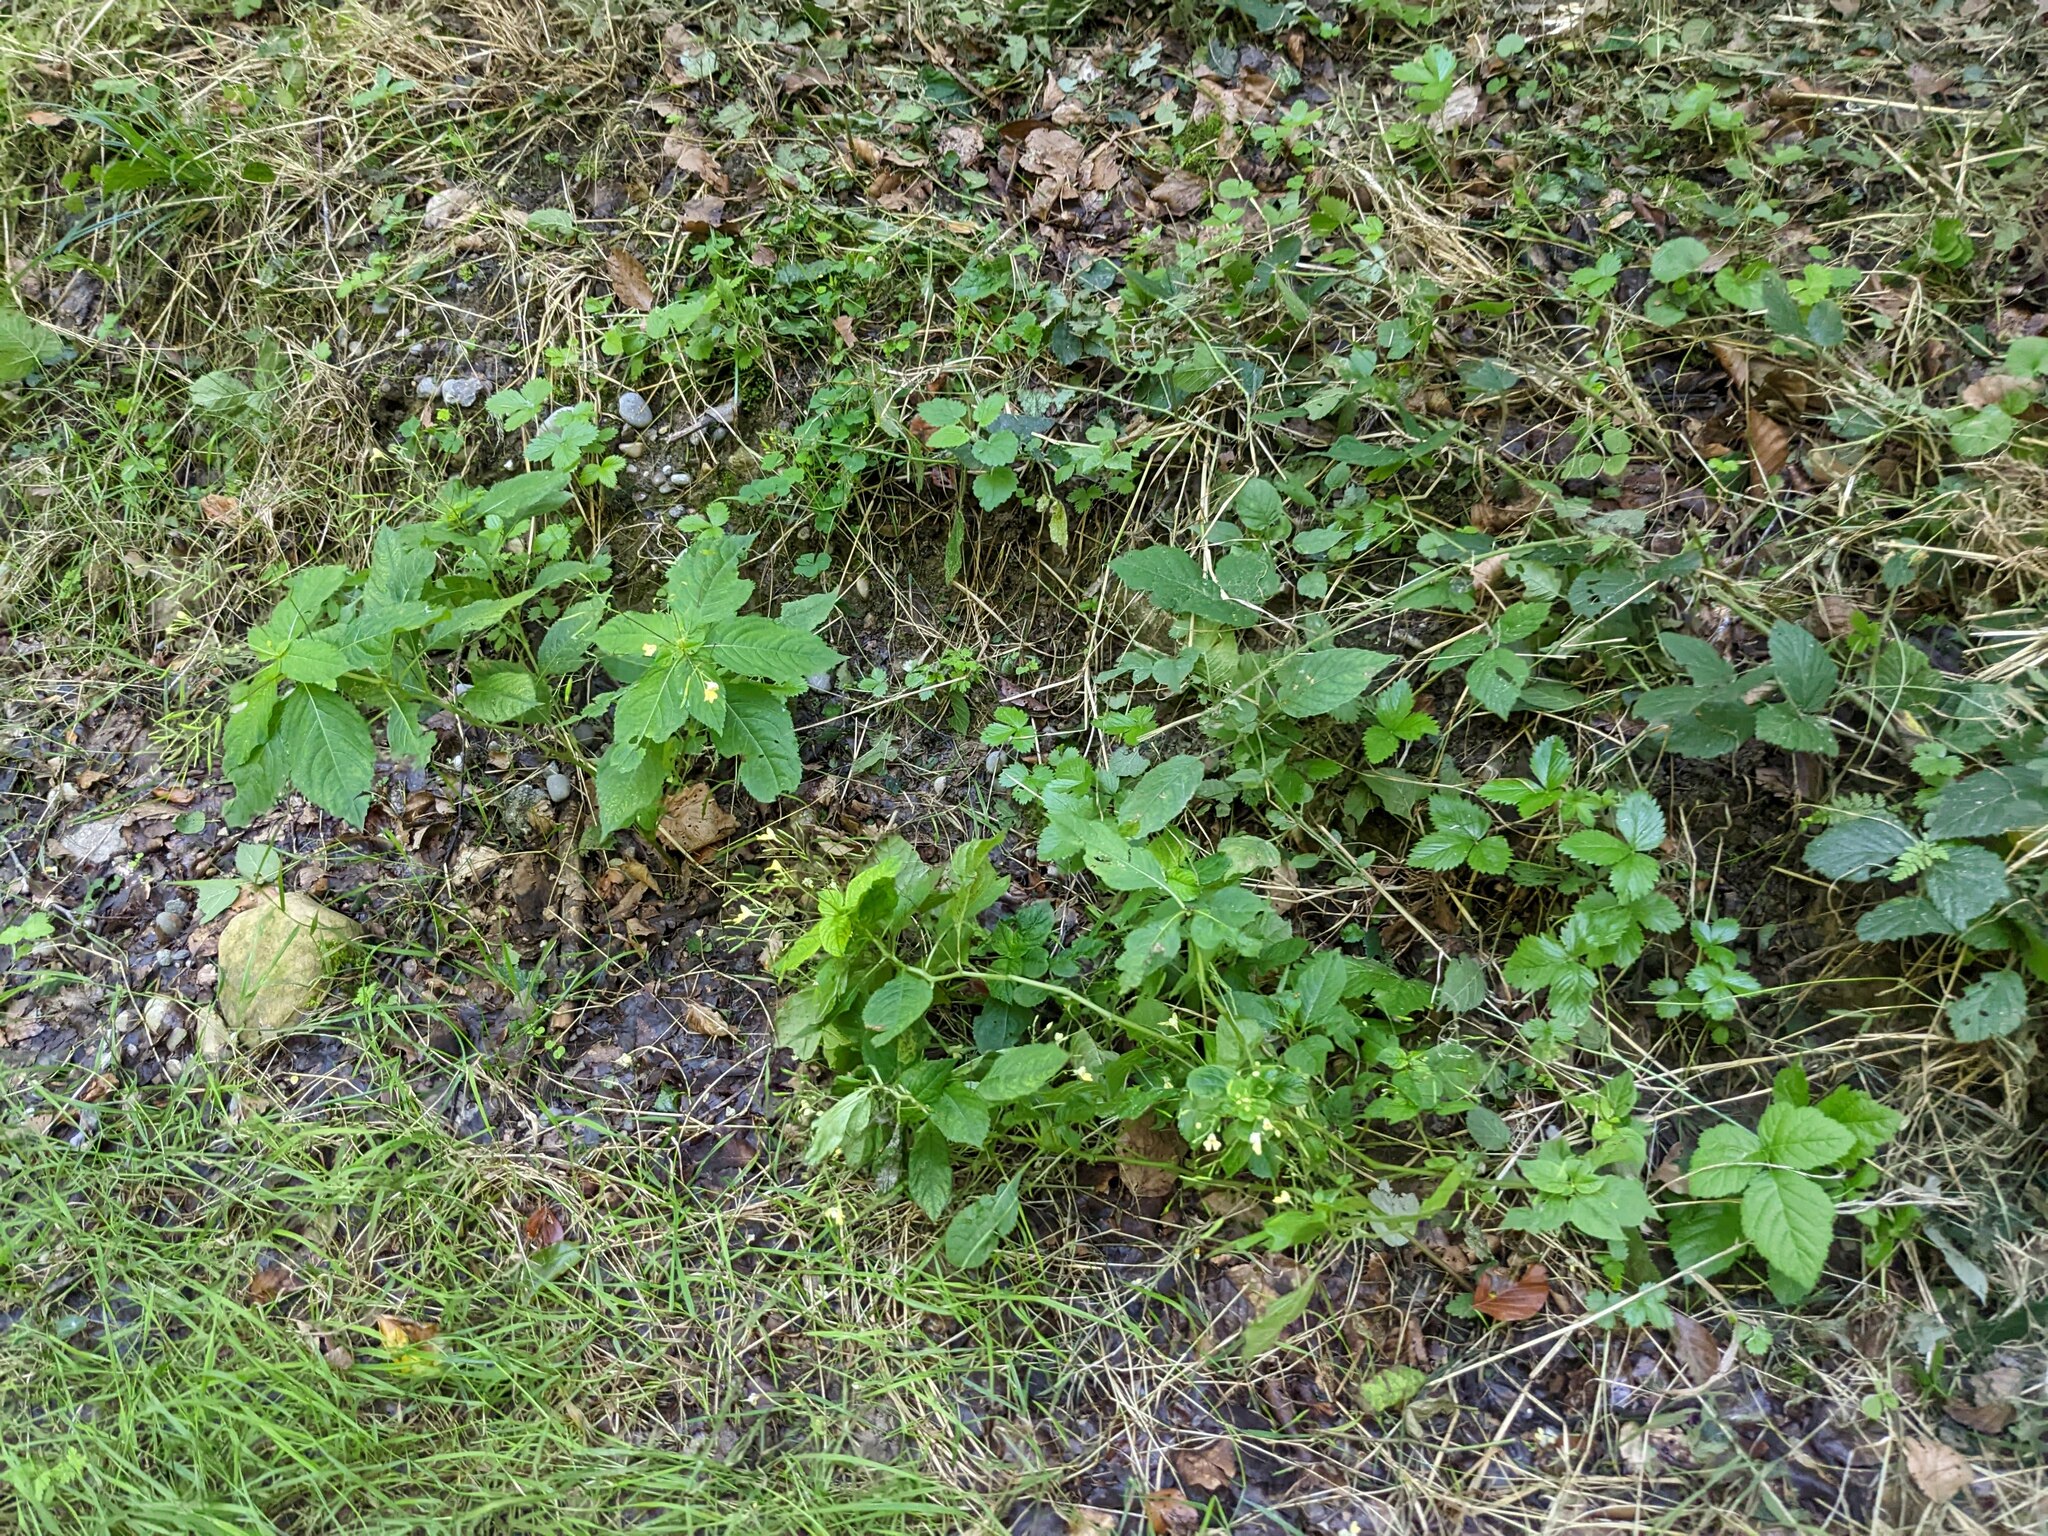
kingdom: Plantae
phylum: Tracheophyta
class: Magnoliopsida
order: Ericales
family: Balsaminaceae
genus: Impatiens
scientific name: Impatiens parviflora
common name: Small balsam
